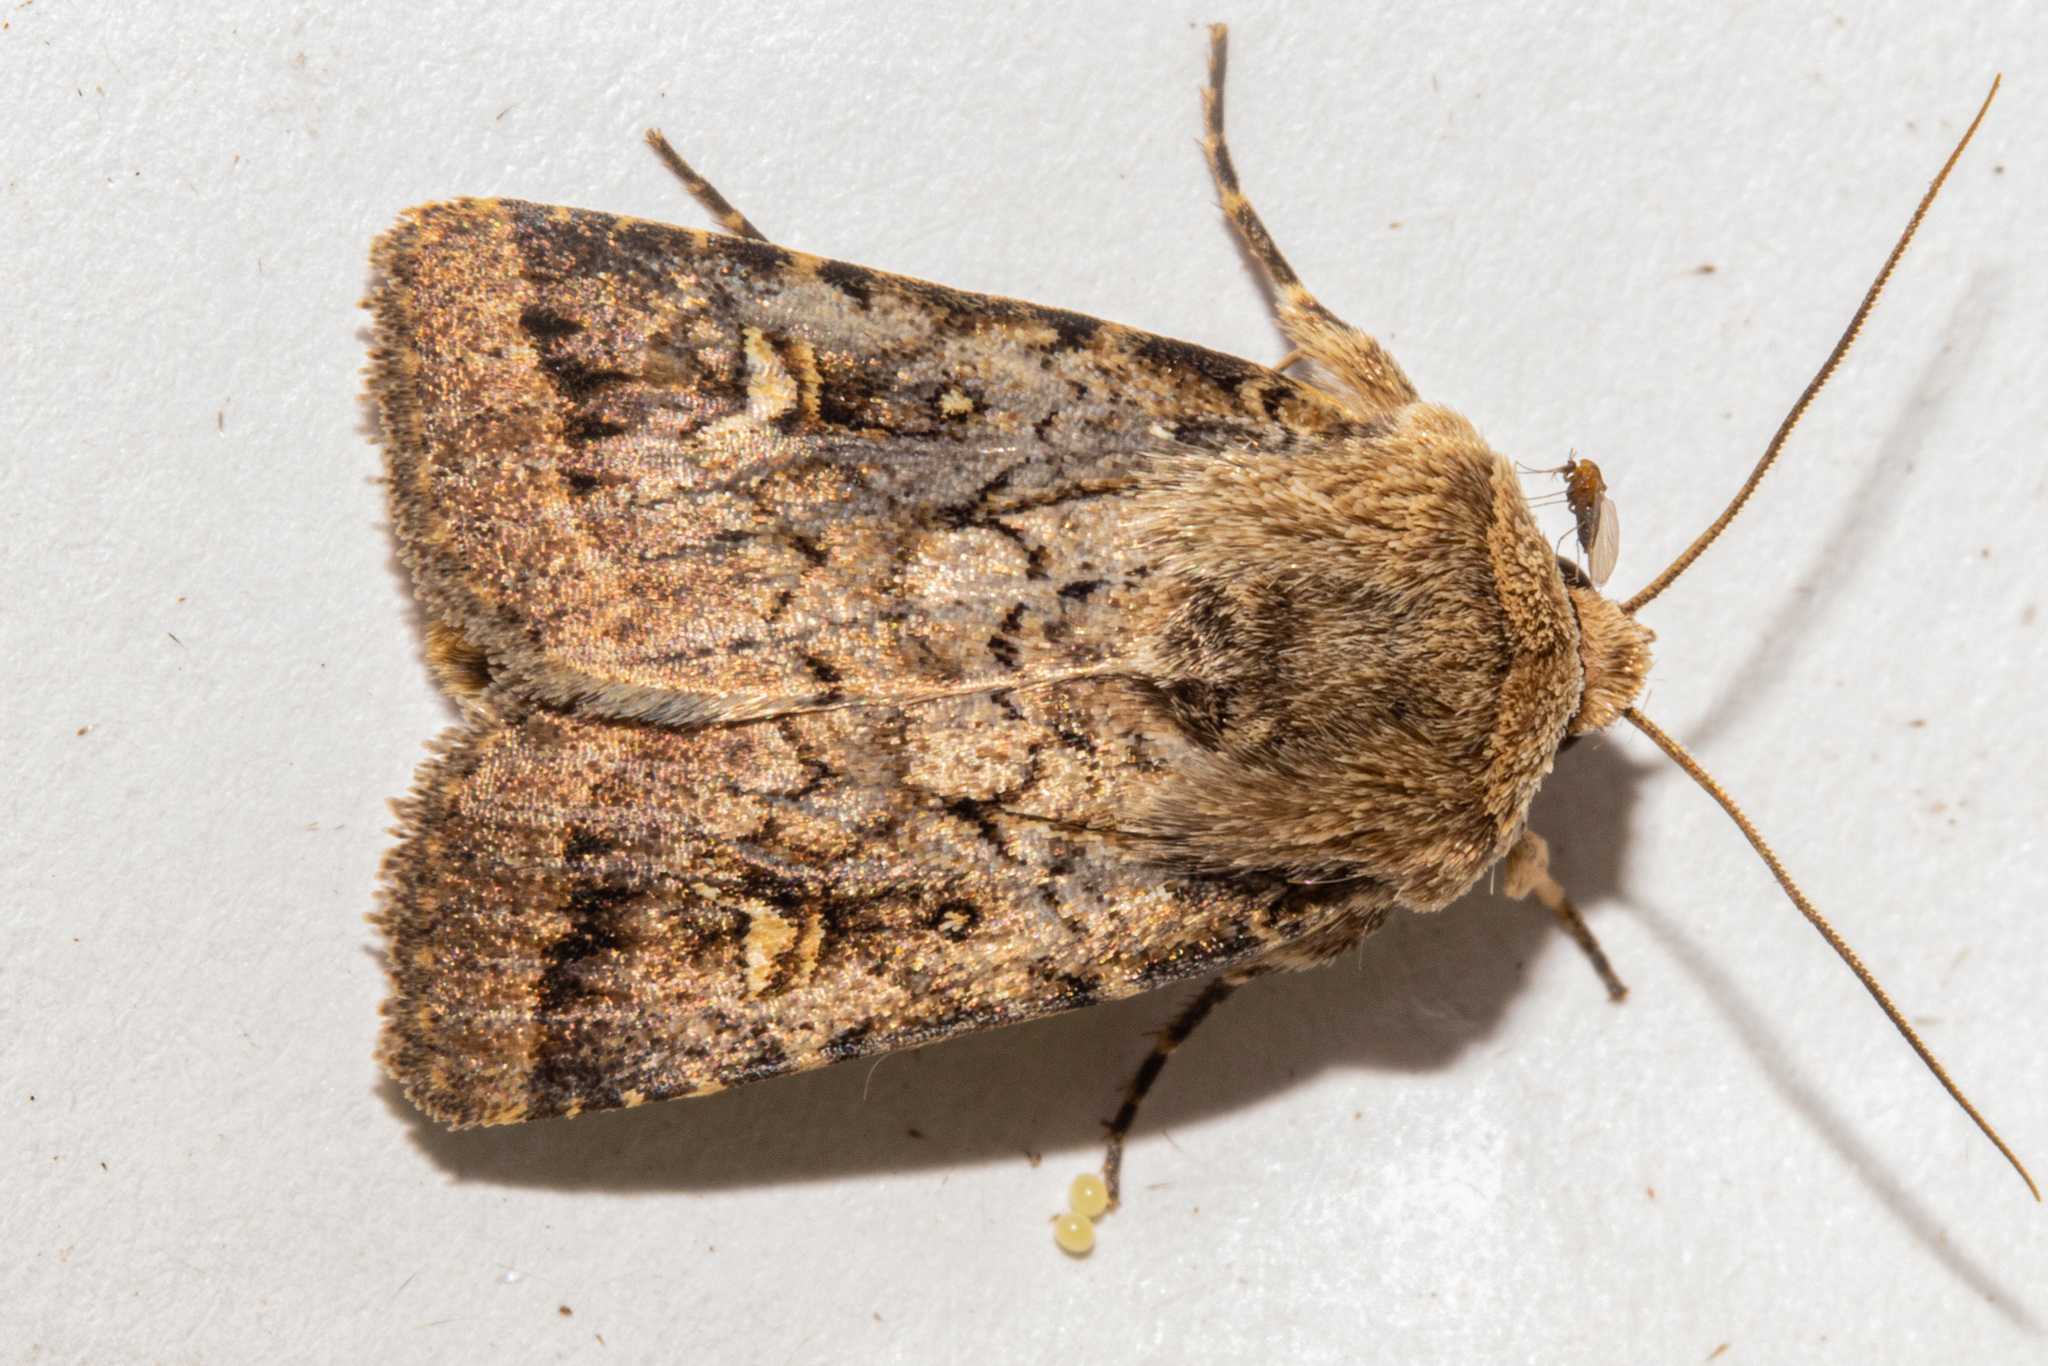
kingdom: Animalia
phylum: Arthropoda
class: Insecta
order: Lepidoptera
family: Noctuidae
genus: Proteuxoa
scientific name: Proteuxoa tetronycha
